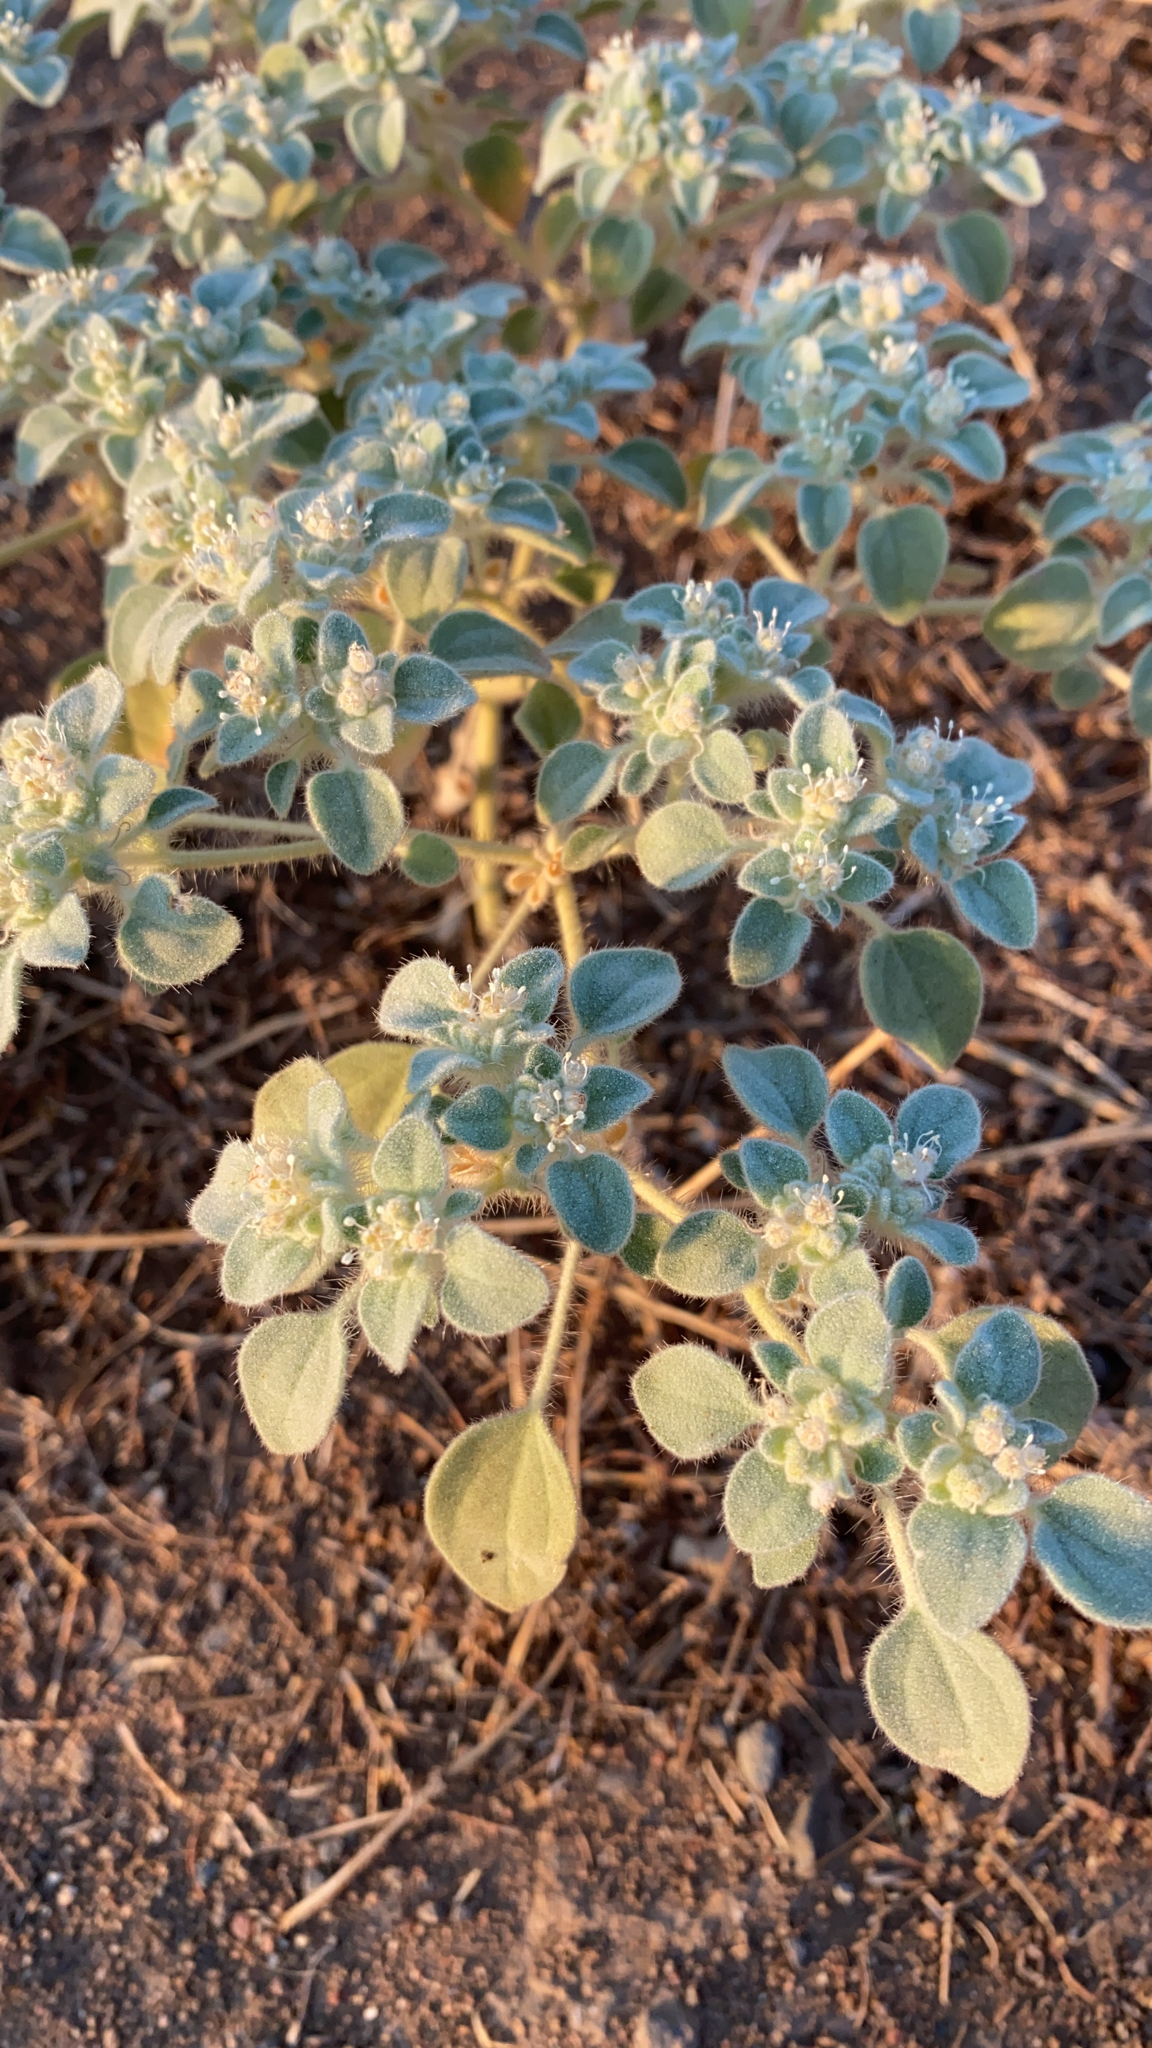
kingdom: Plantae
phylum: Tracheophyta
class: Magnoliopsida
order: Malpighiales
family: Euphorbiaceae
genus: Croton
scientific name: Croton setiger
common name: Dove weed
